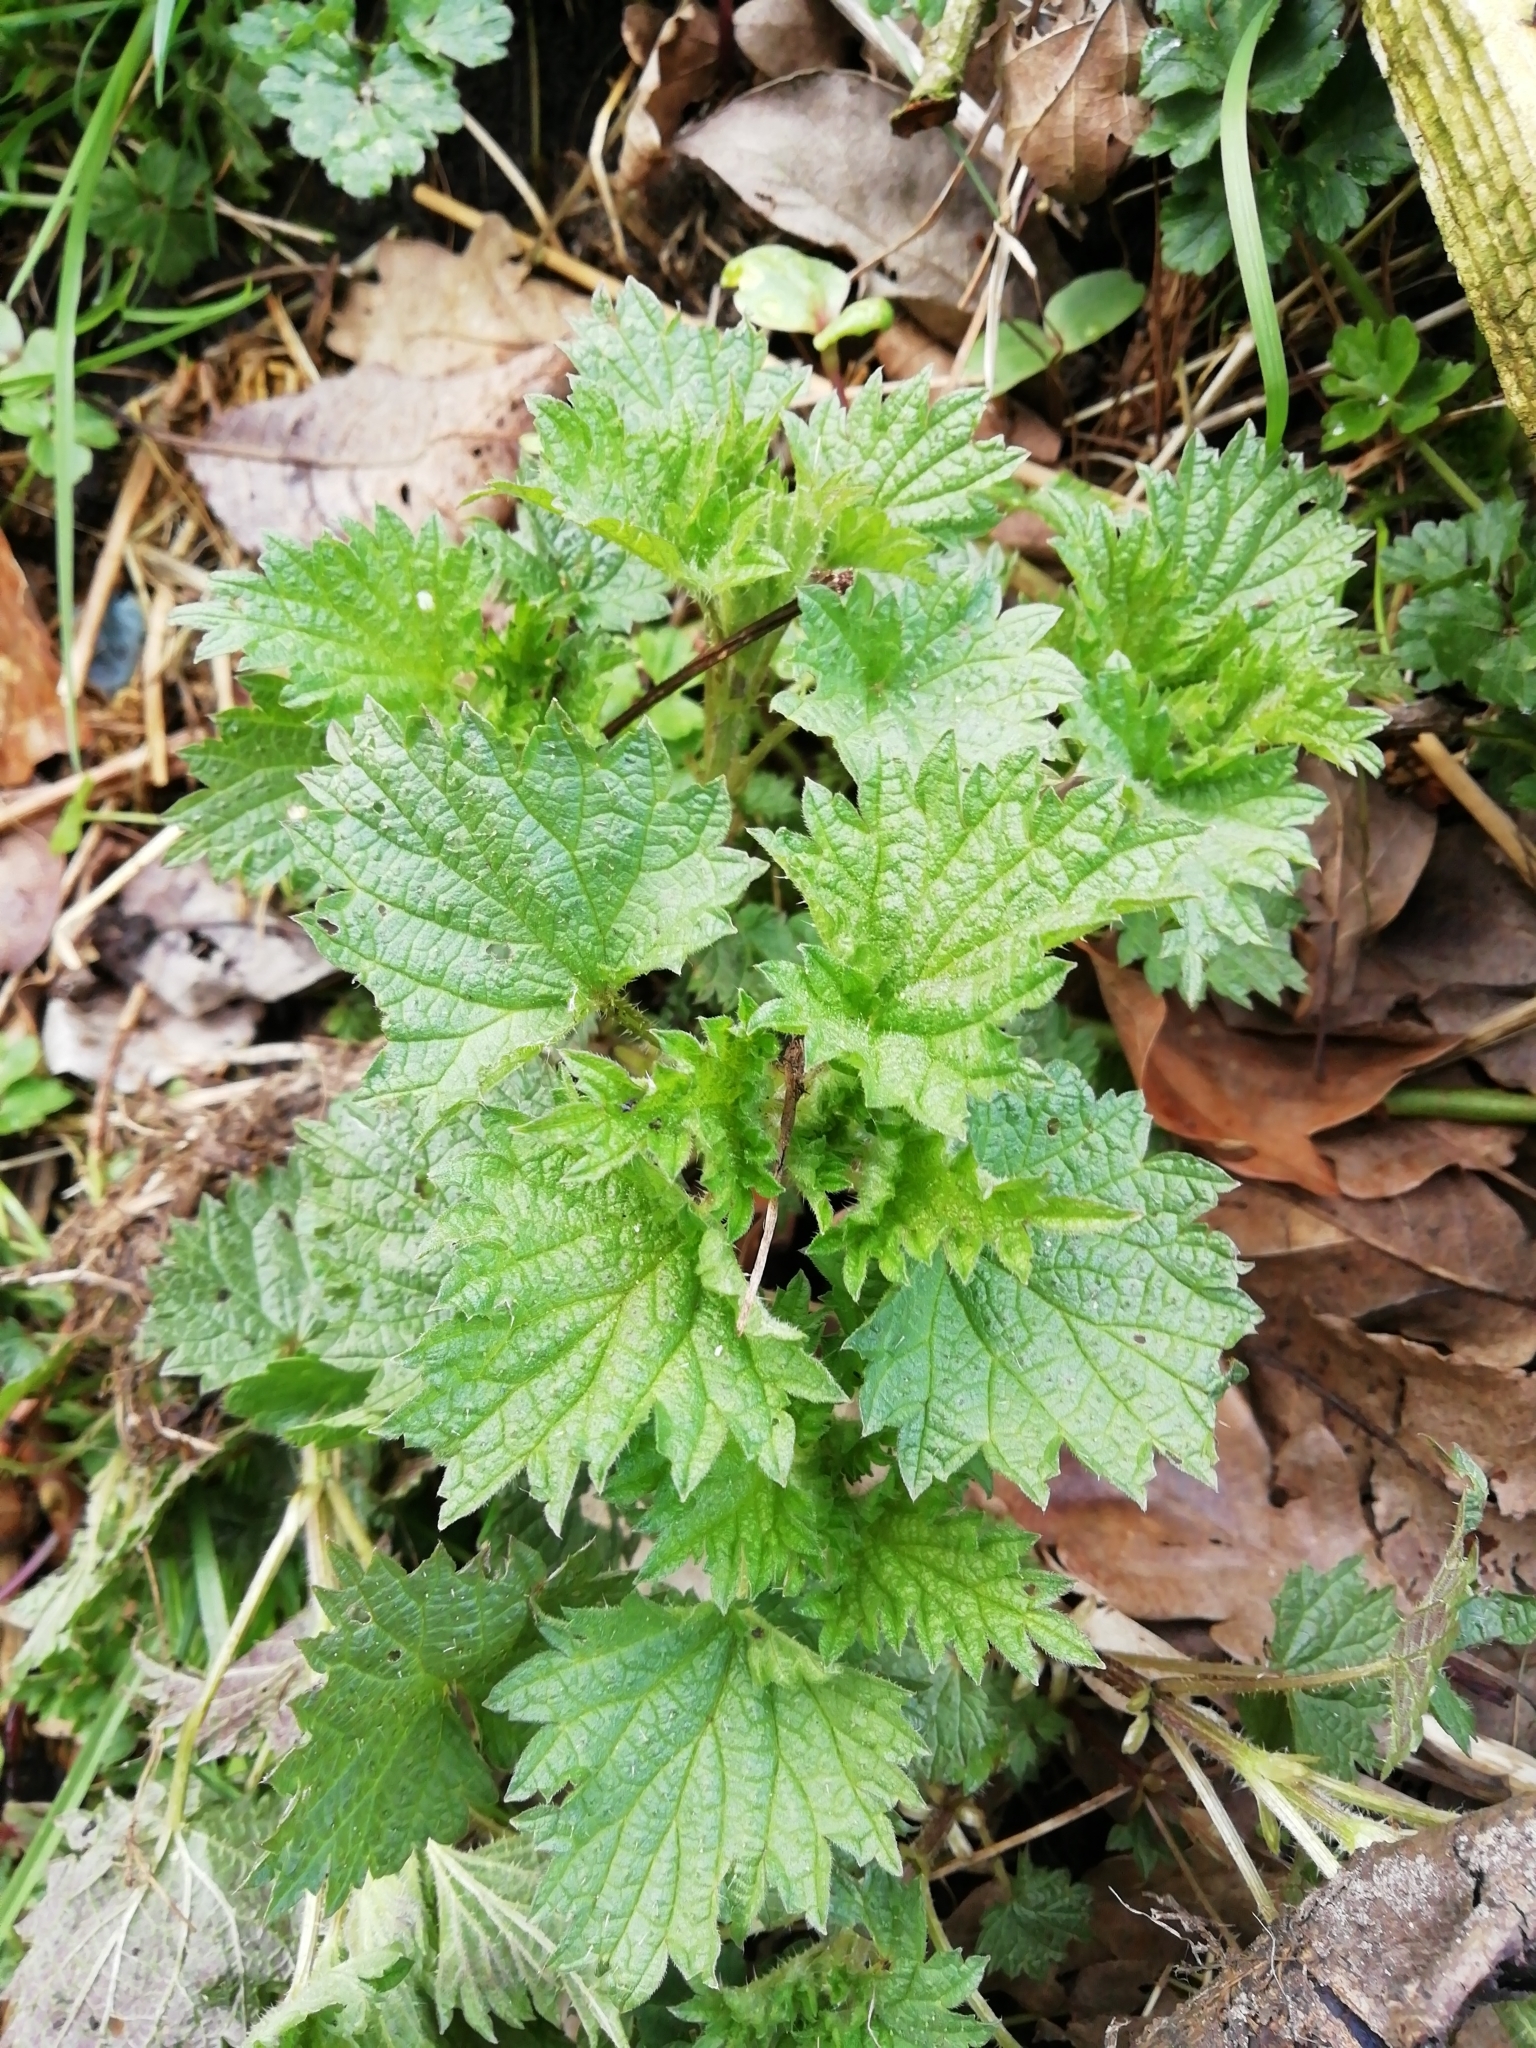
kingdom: Plantae
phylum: Tracheophyta
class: Magnoliopsida
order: Rosales
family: Urticaceae
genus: Urtica
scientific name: Urtica dioica
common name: Common nettle
